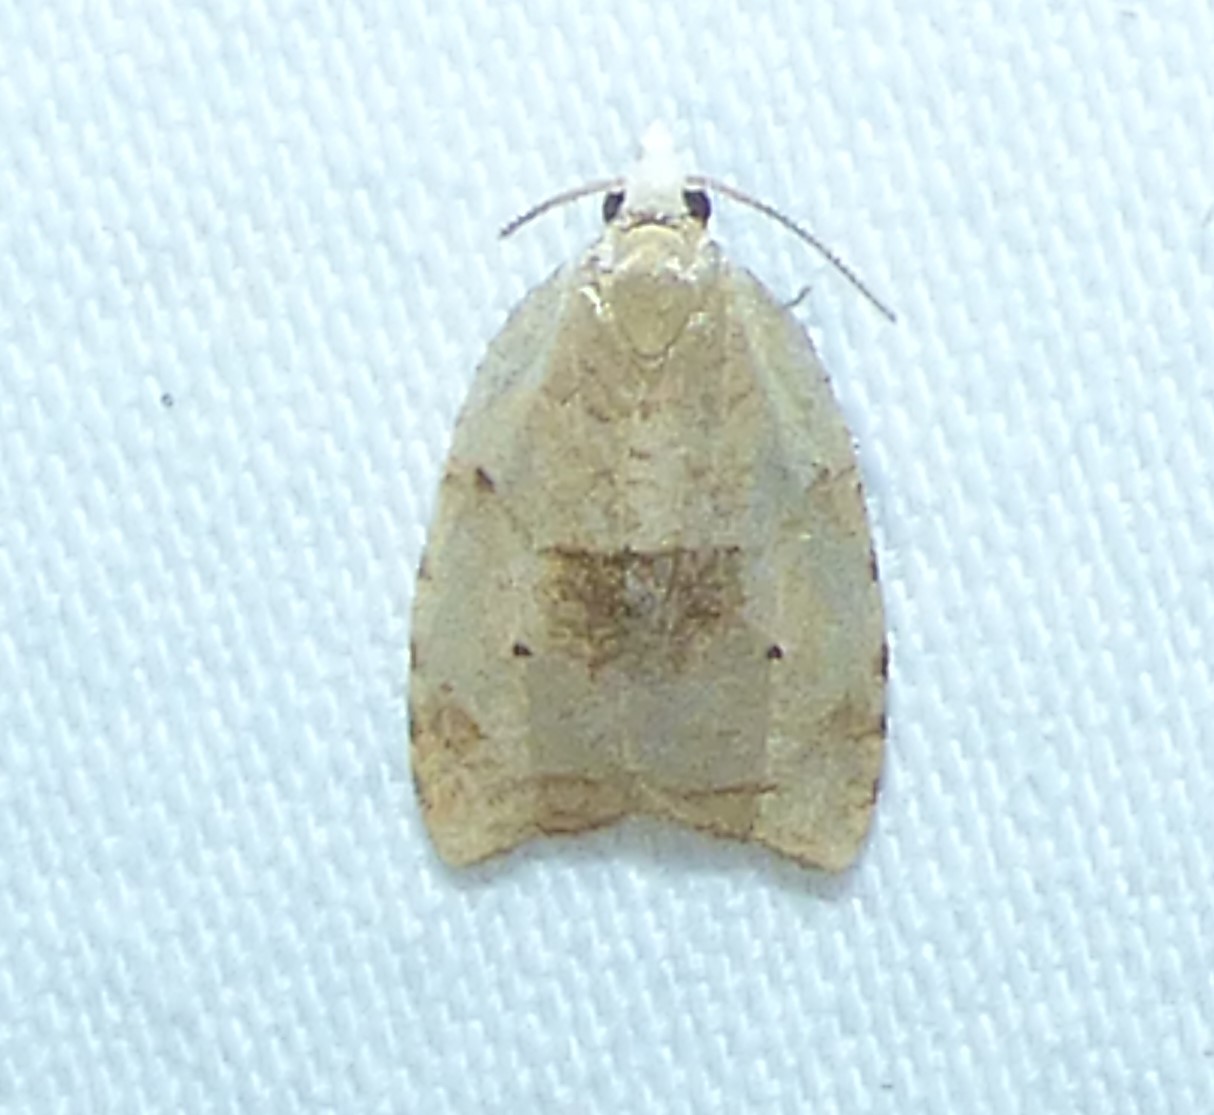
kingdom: Animalia
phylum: Arthropoda
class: Insecta
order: Lepidoptera
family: Tortricidae
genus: Coelostathma
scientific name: Coelostathma discopunctana
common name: Batman moth
